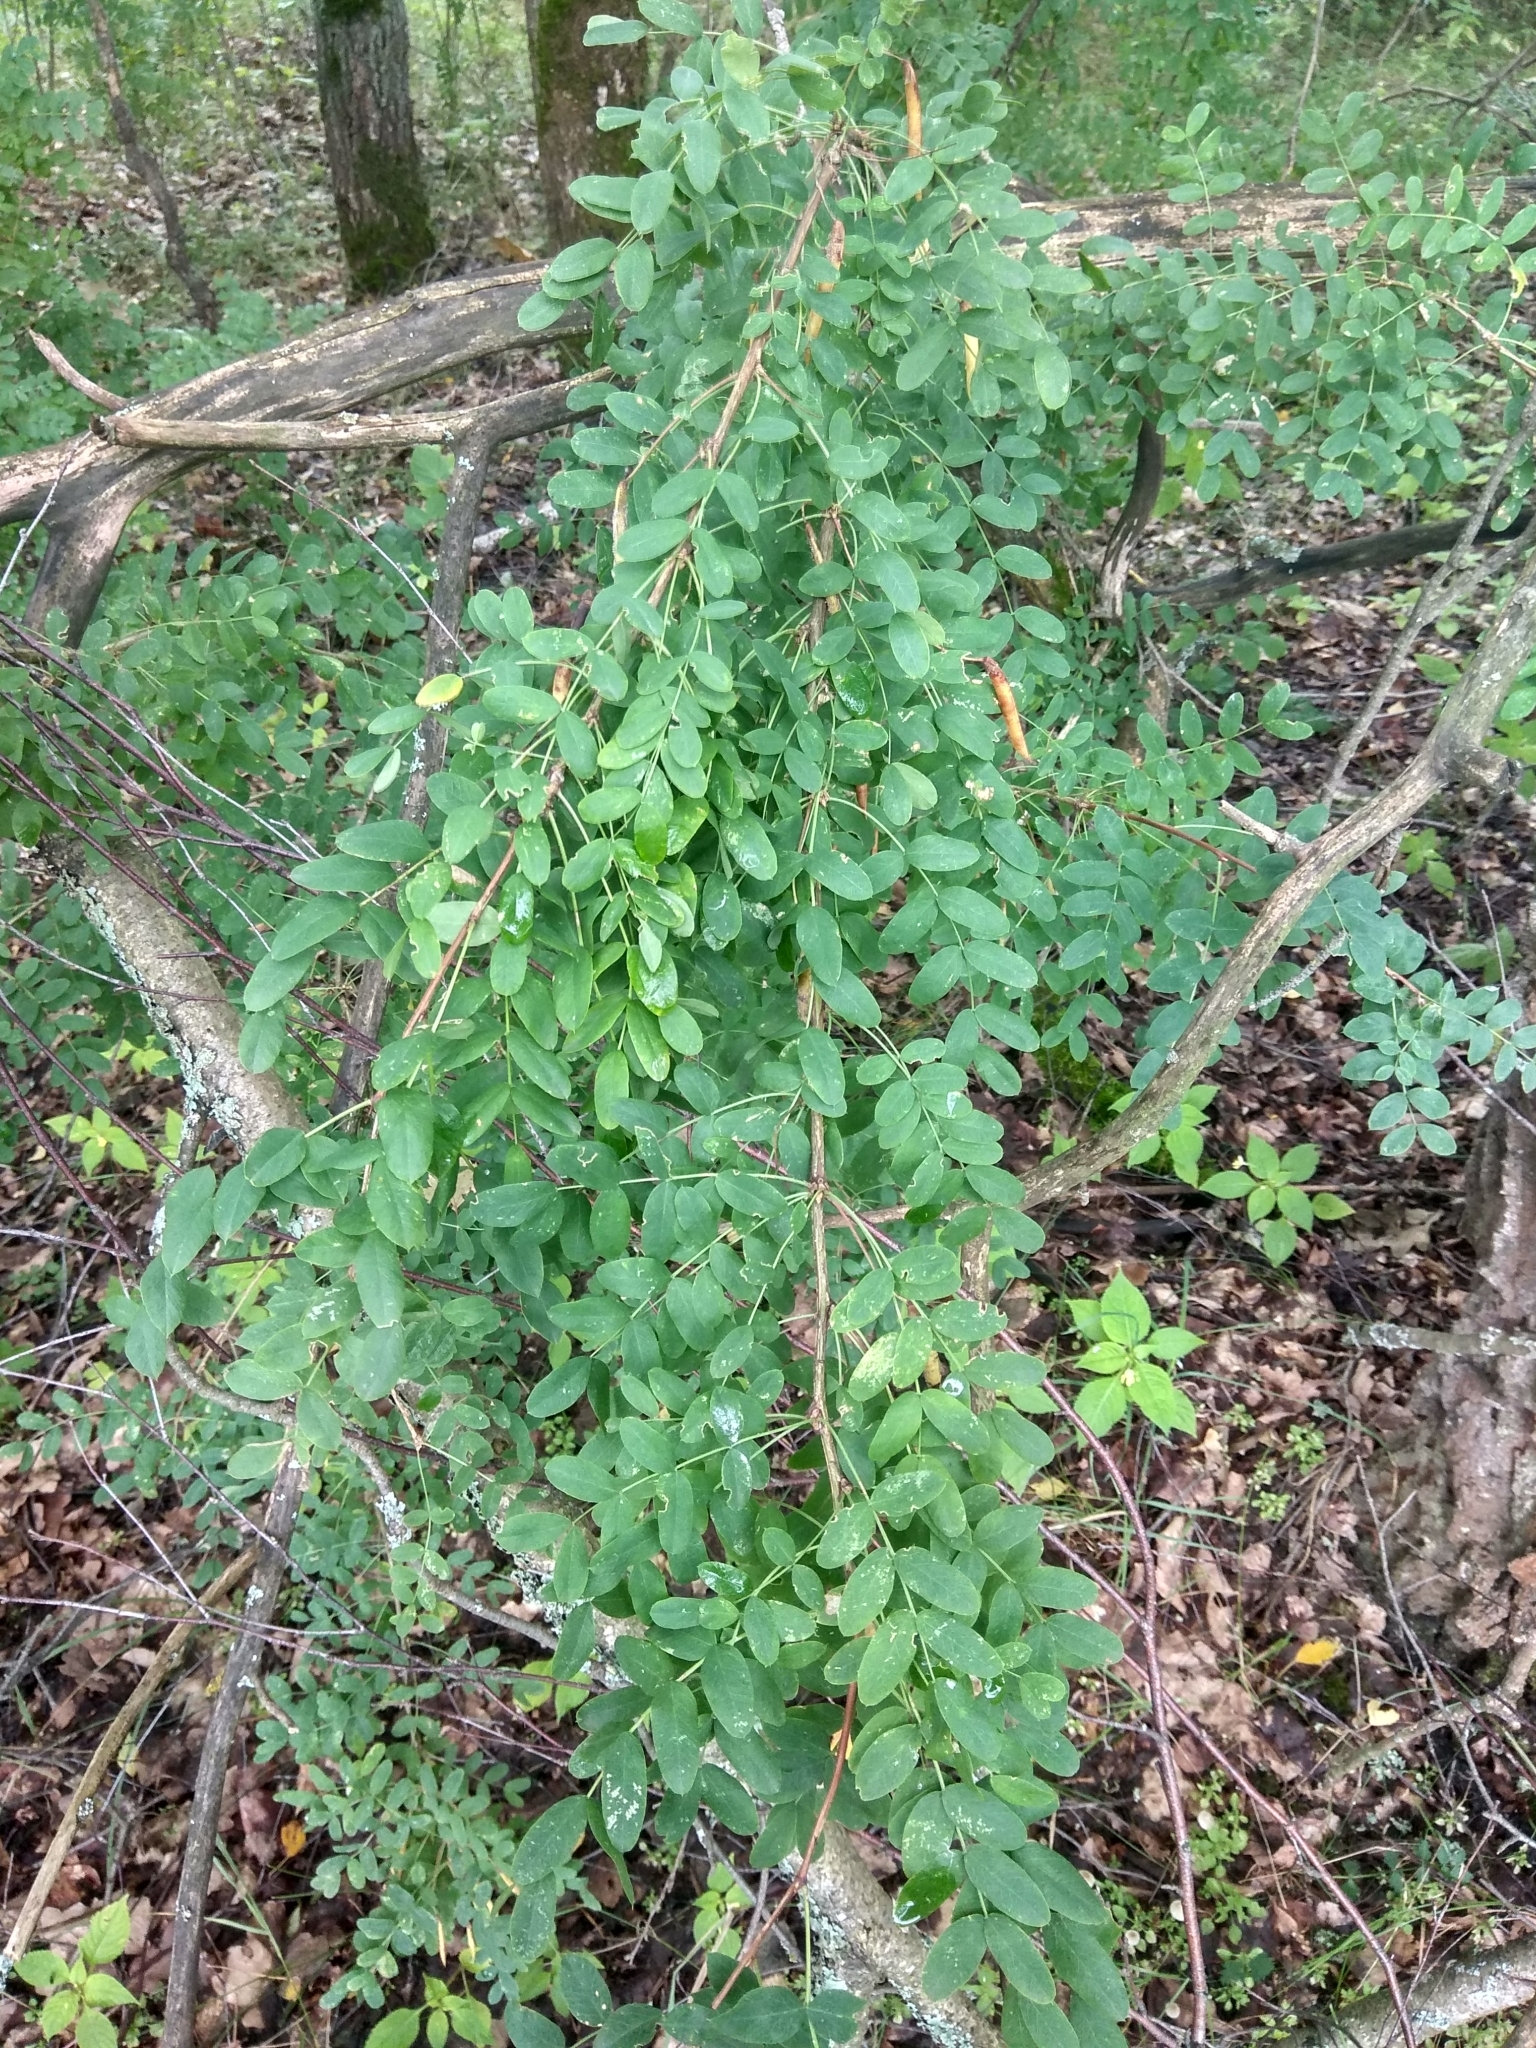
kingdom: Plantae
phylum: Tracheophyta
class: Magnoliopsida
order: Fabales
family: Fabaceae
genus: Caragana
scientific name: Caragana arborescens
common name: Siberian peashrub
